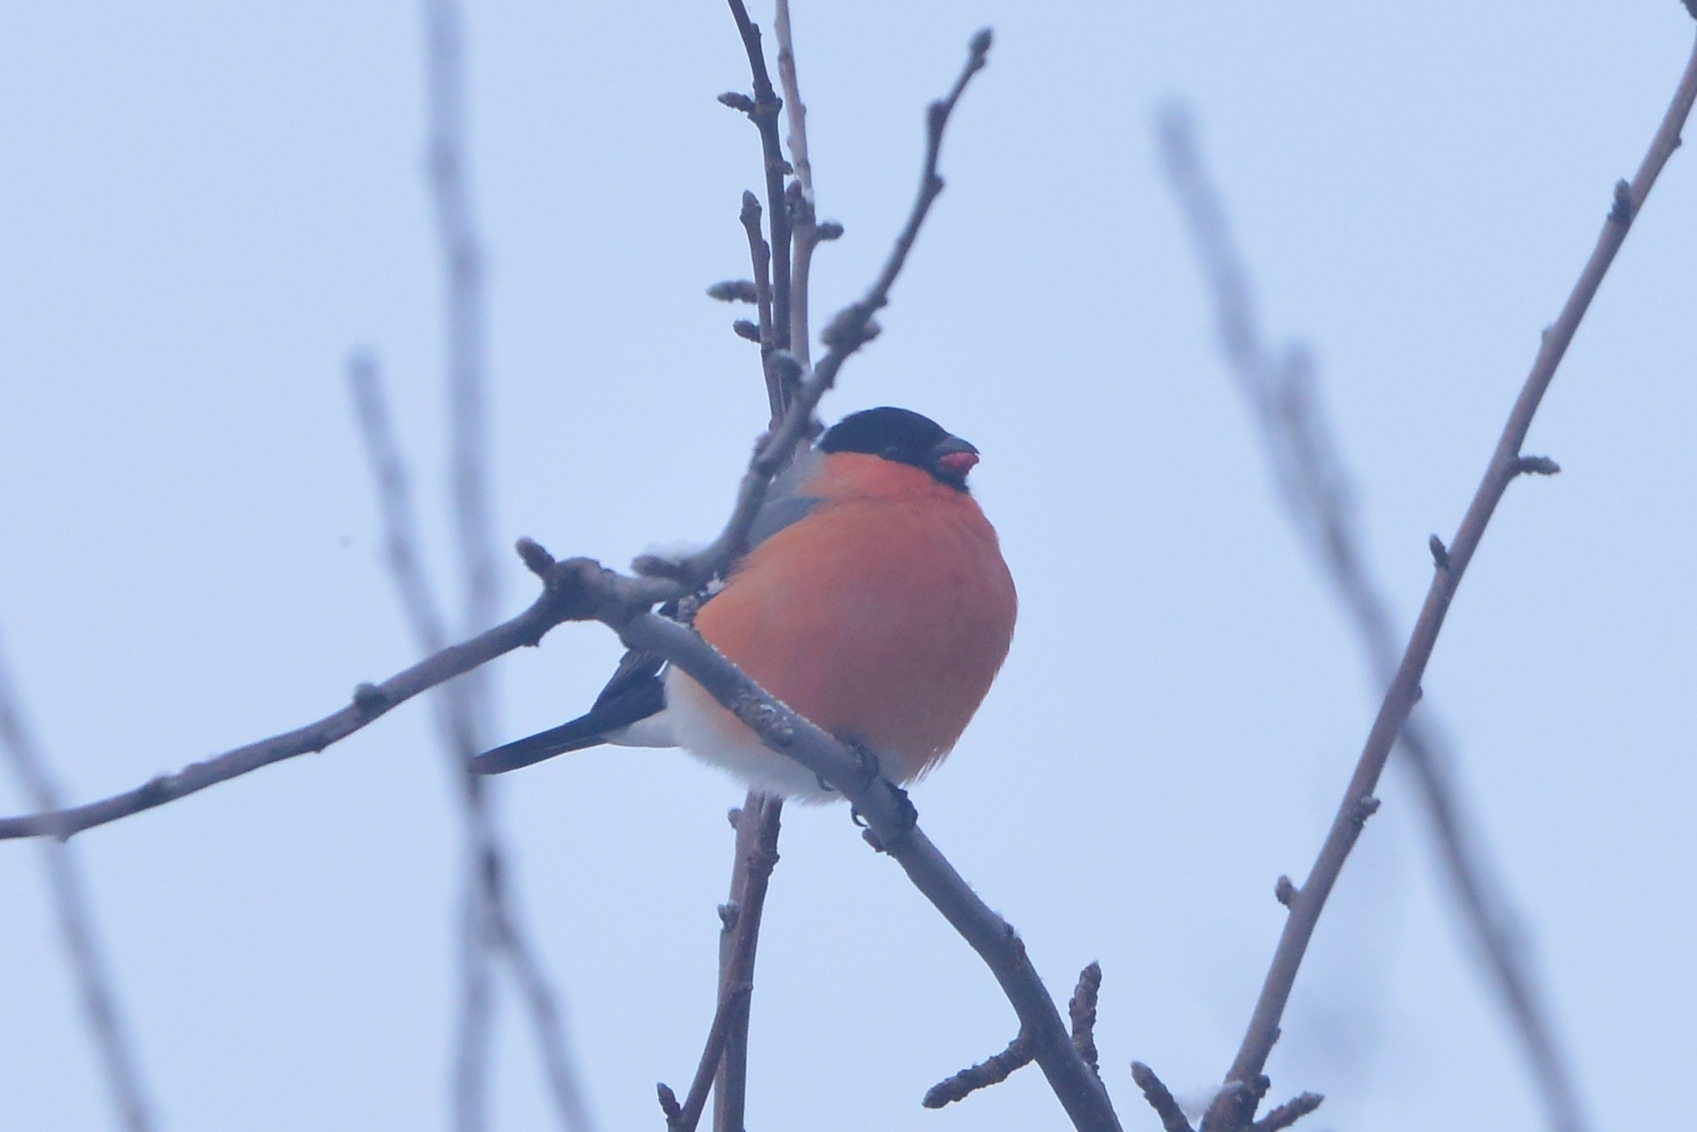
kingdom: Animalia
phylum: Chordata
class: Aves
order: Passeriformes
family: Fringillidae
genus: Pyrrhula
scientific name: Pyrrhula pyrrhula
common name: Eurasian bullfinch
